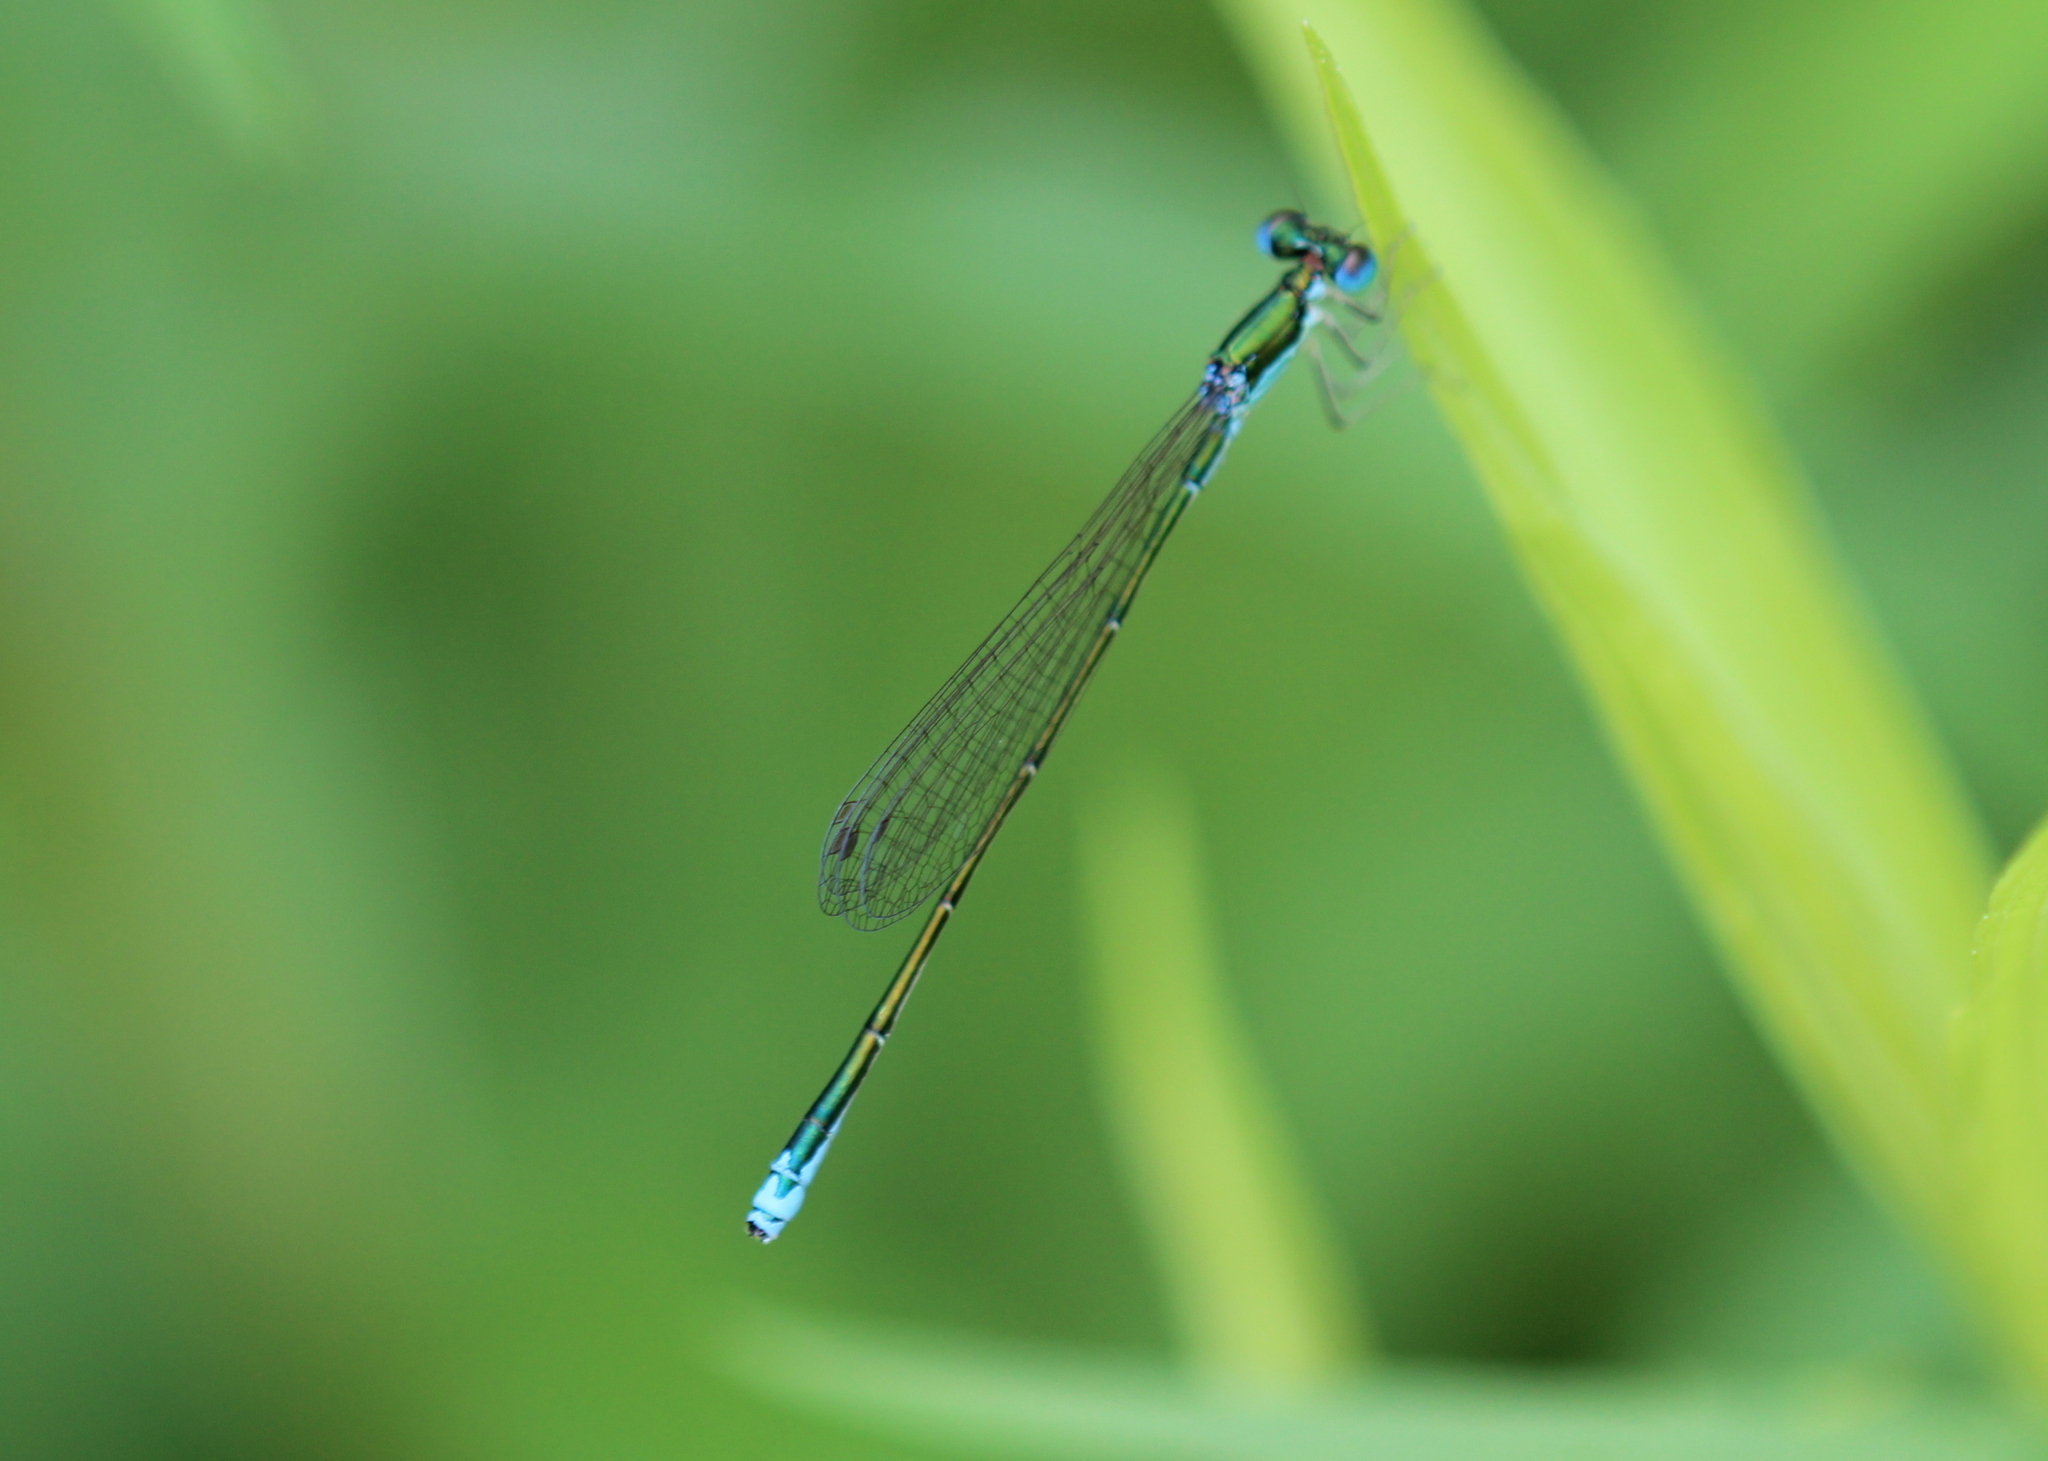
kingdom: Animalia
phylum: Arthropoda
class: Insecta
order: Odonata
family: Coenagrionidae
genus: Nehalennia
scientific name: Nehalennia irene
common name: Sedge sprite
